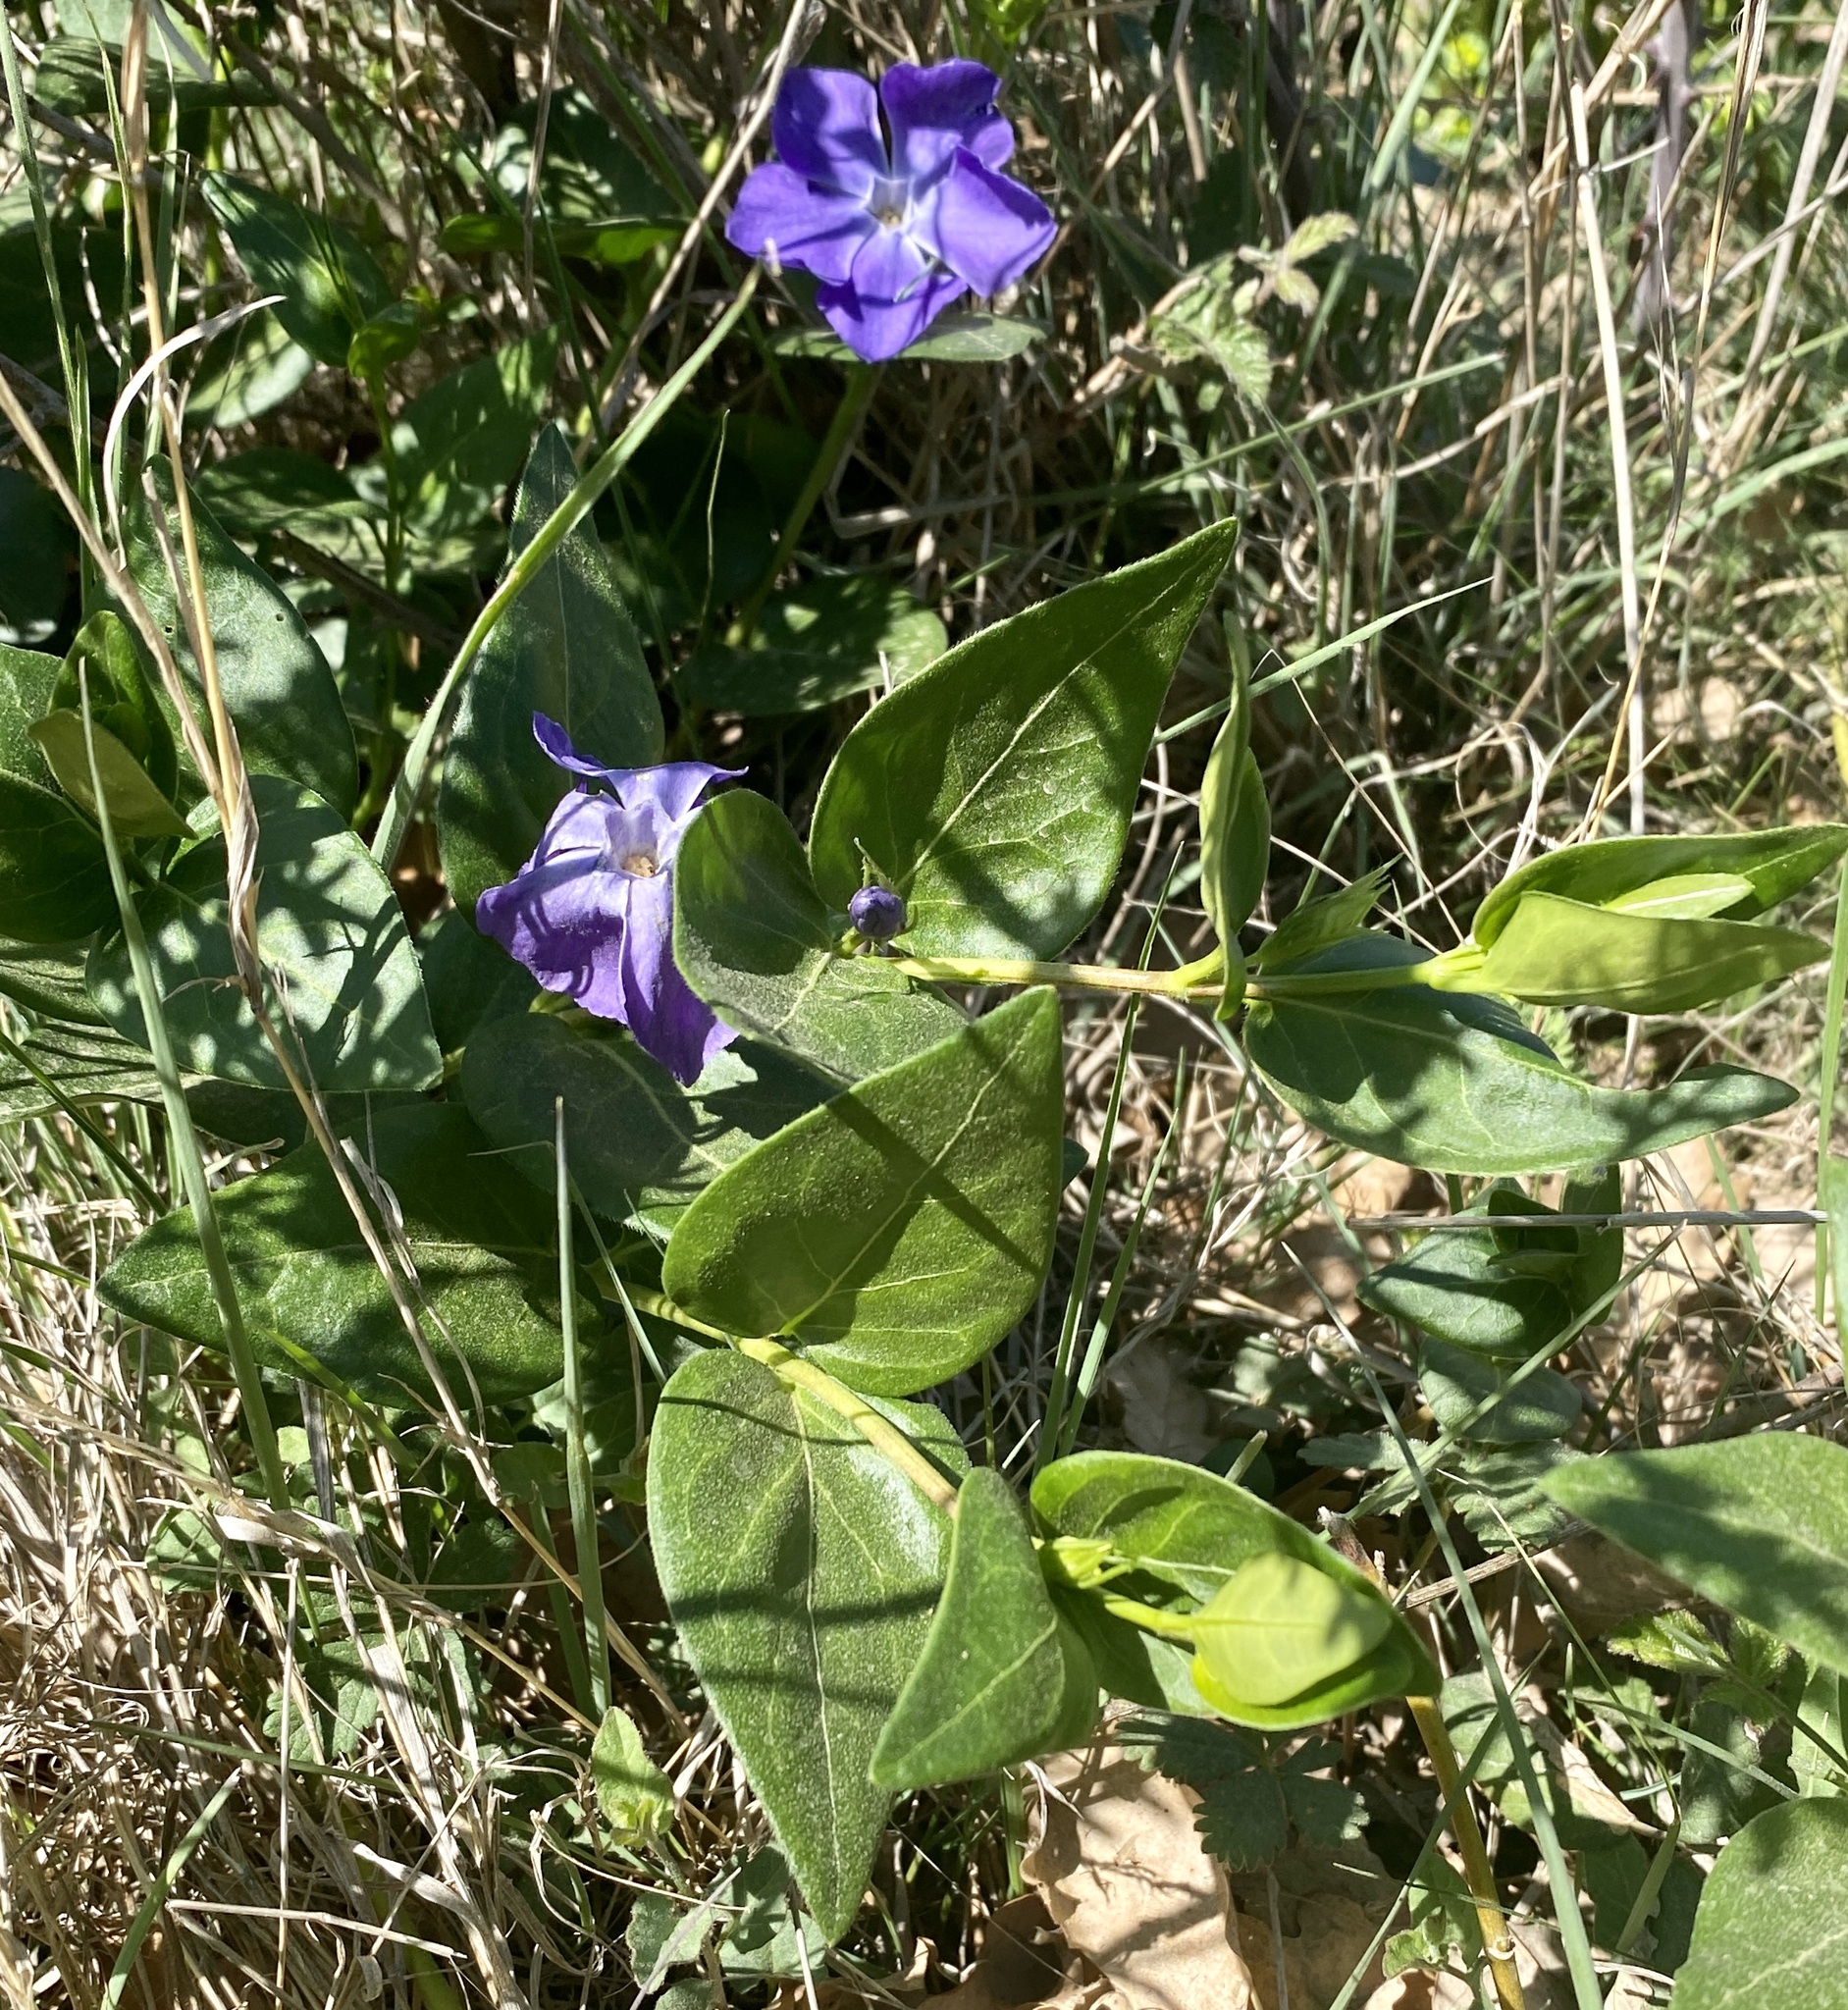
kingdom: Plantae
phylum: Tracheophyta
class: Magnoliopsida
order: Gentianales
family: Apocynaceae
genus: Vinca
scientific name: Vinca major
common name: Greater periwinkle
